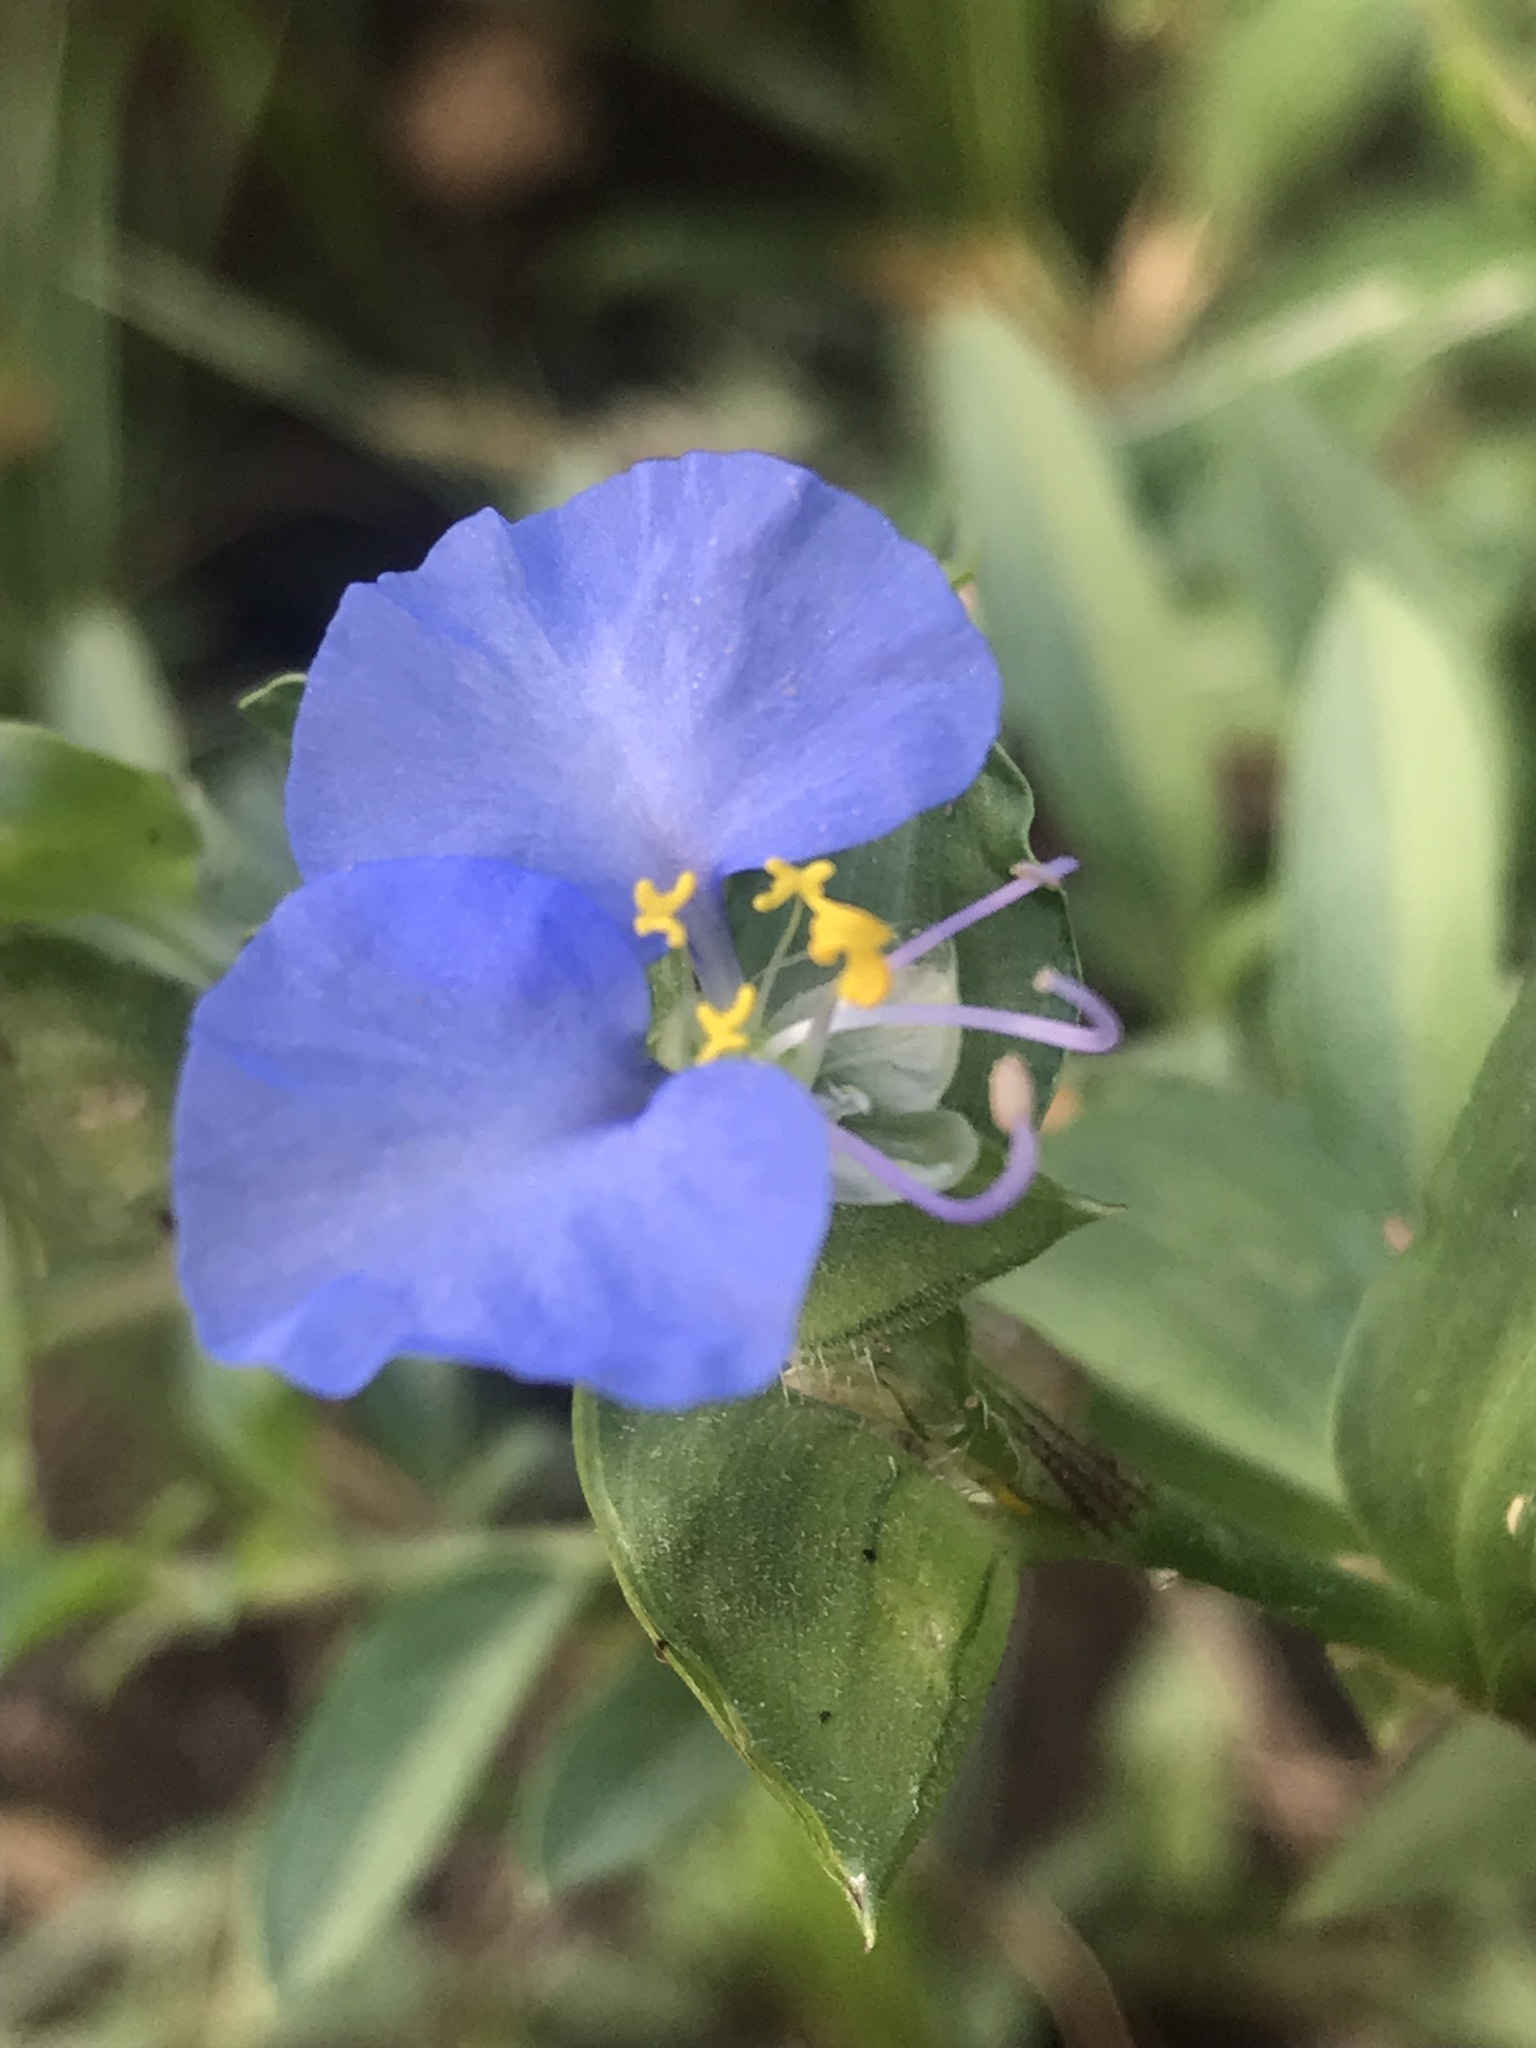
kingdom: Plantae
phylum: Tracheophyta
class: Liliopsida
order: Commelinales
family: Commelinaceae
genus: Commelina
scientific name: Commelina erecta
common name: Blousel blommetjie
